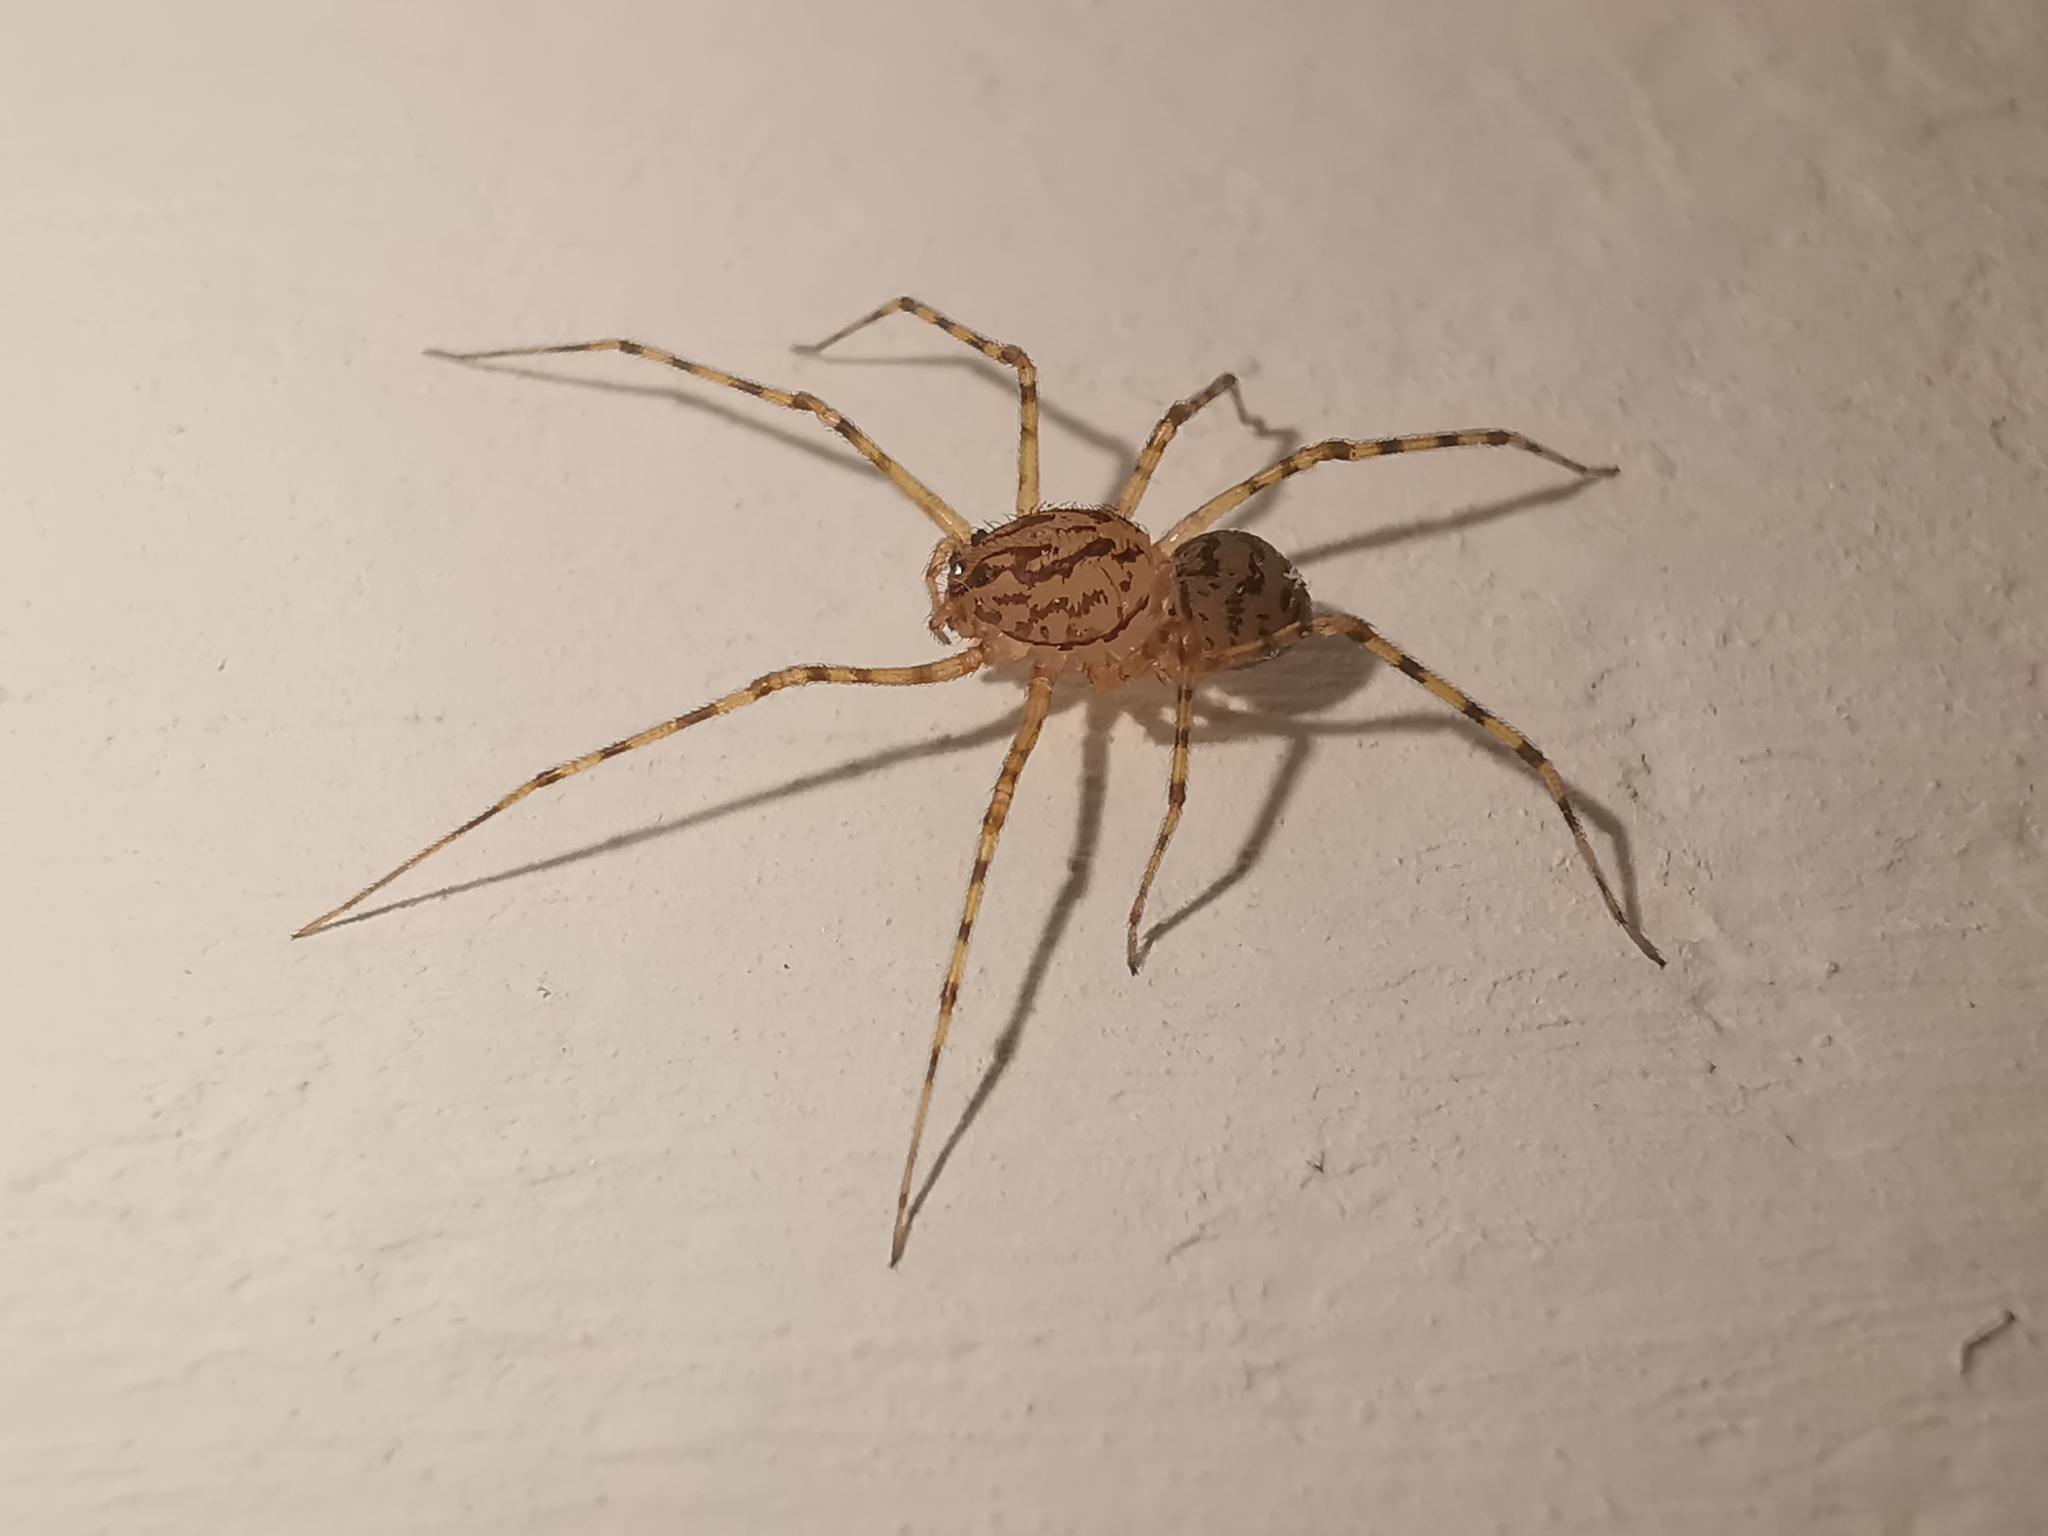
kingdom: Animalia
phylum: Arthropoda
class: Arachnida
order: Araneae
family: Scytodidae
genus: Scytodes
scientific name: Scytodes thoracica
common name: Spitting spider
